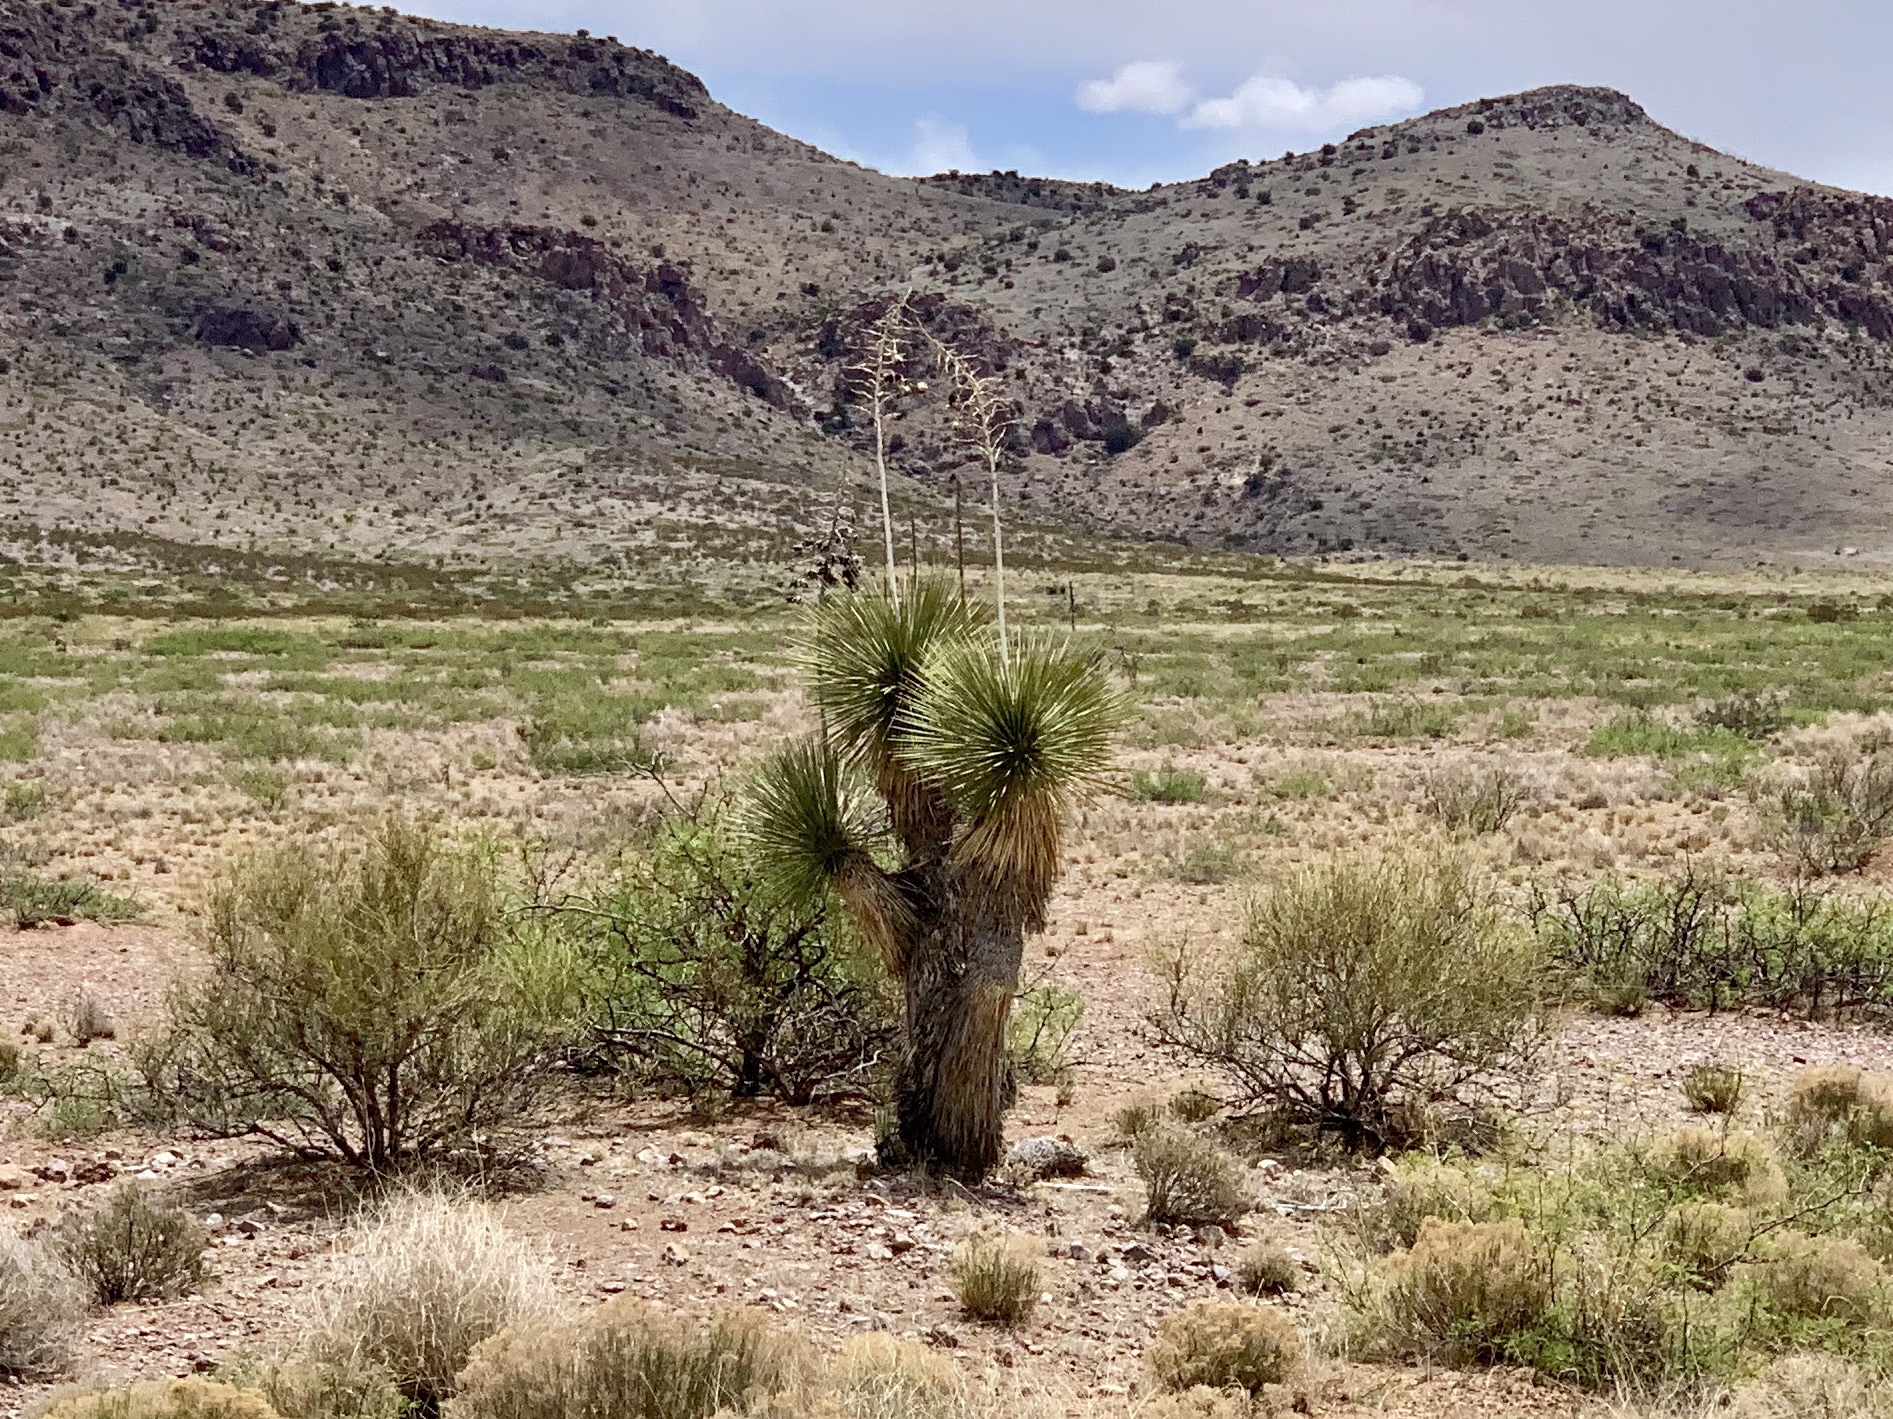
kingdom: Plantae
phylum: Tracheophyta
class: Liliopsida
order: Asparagales
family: Asparagaceae
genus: Yucca
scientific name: Yucca elata
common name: Palmella
